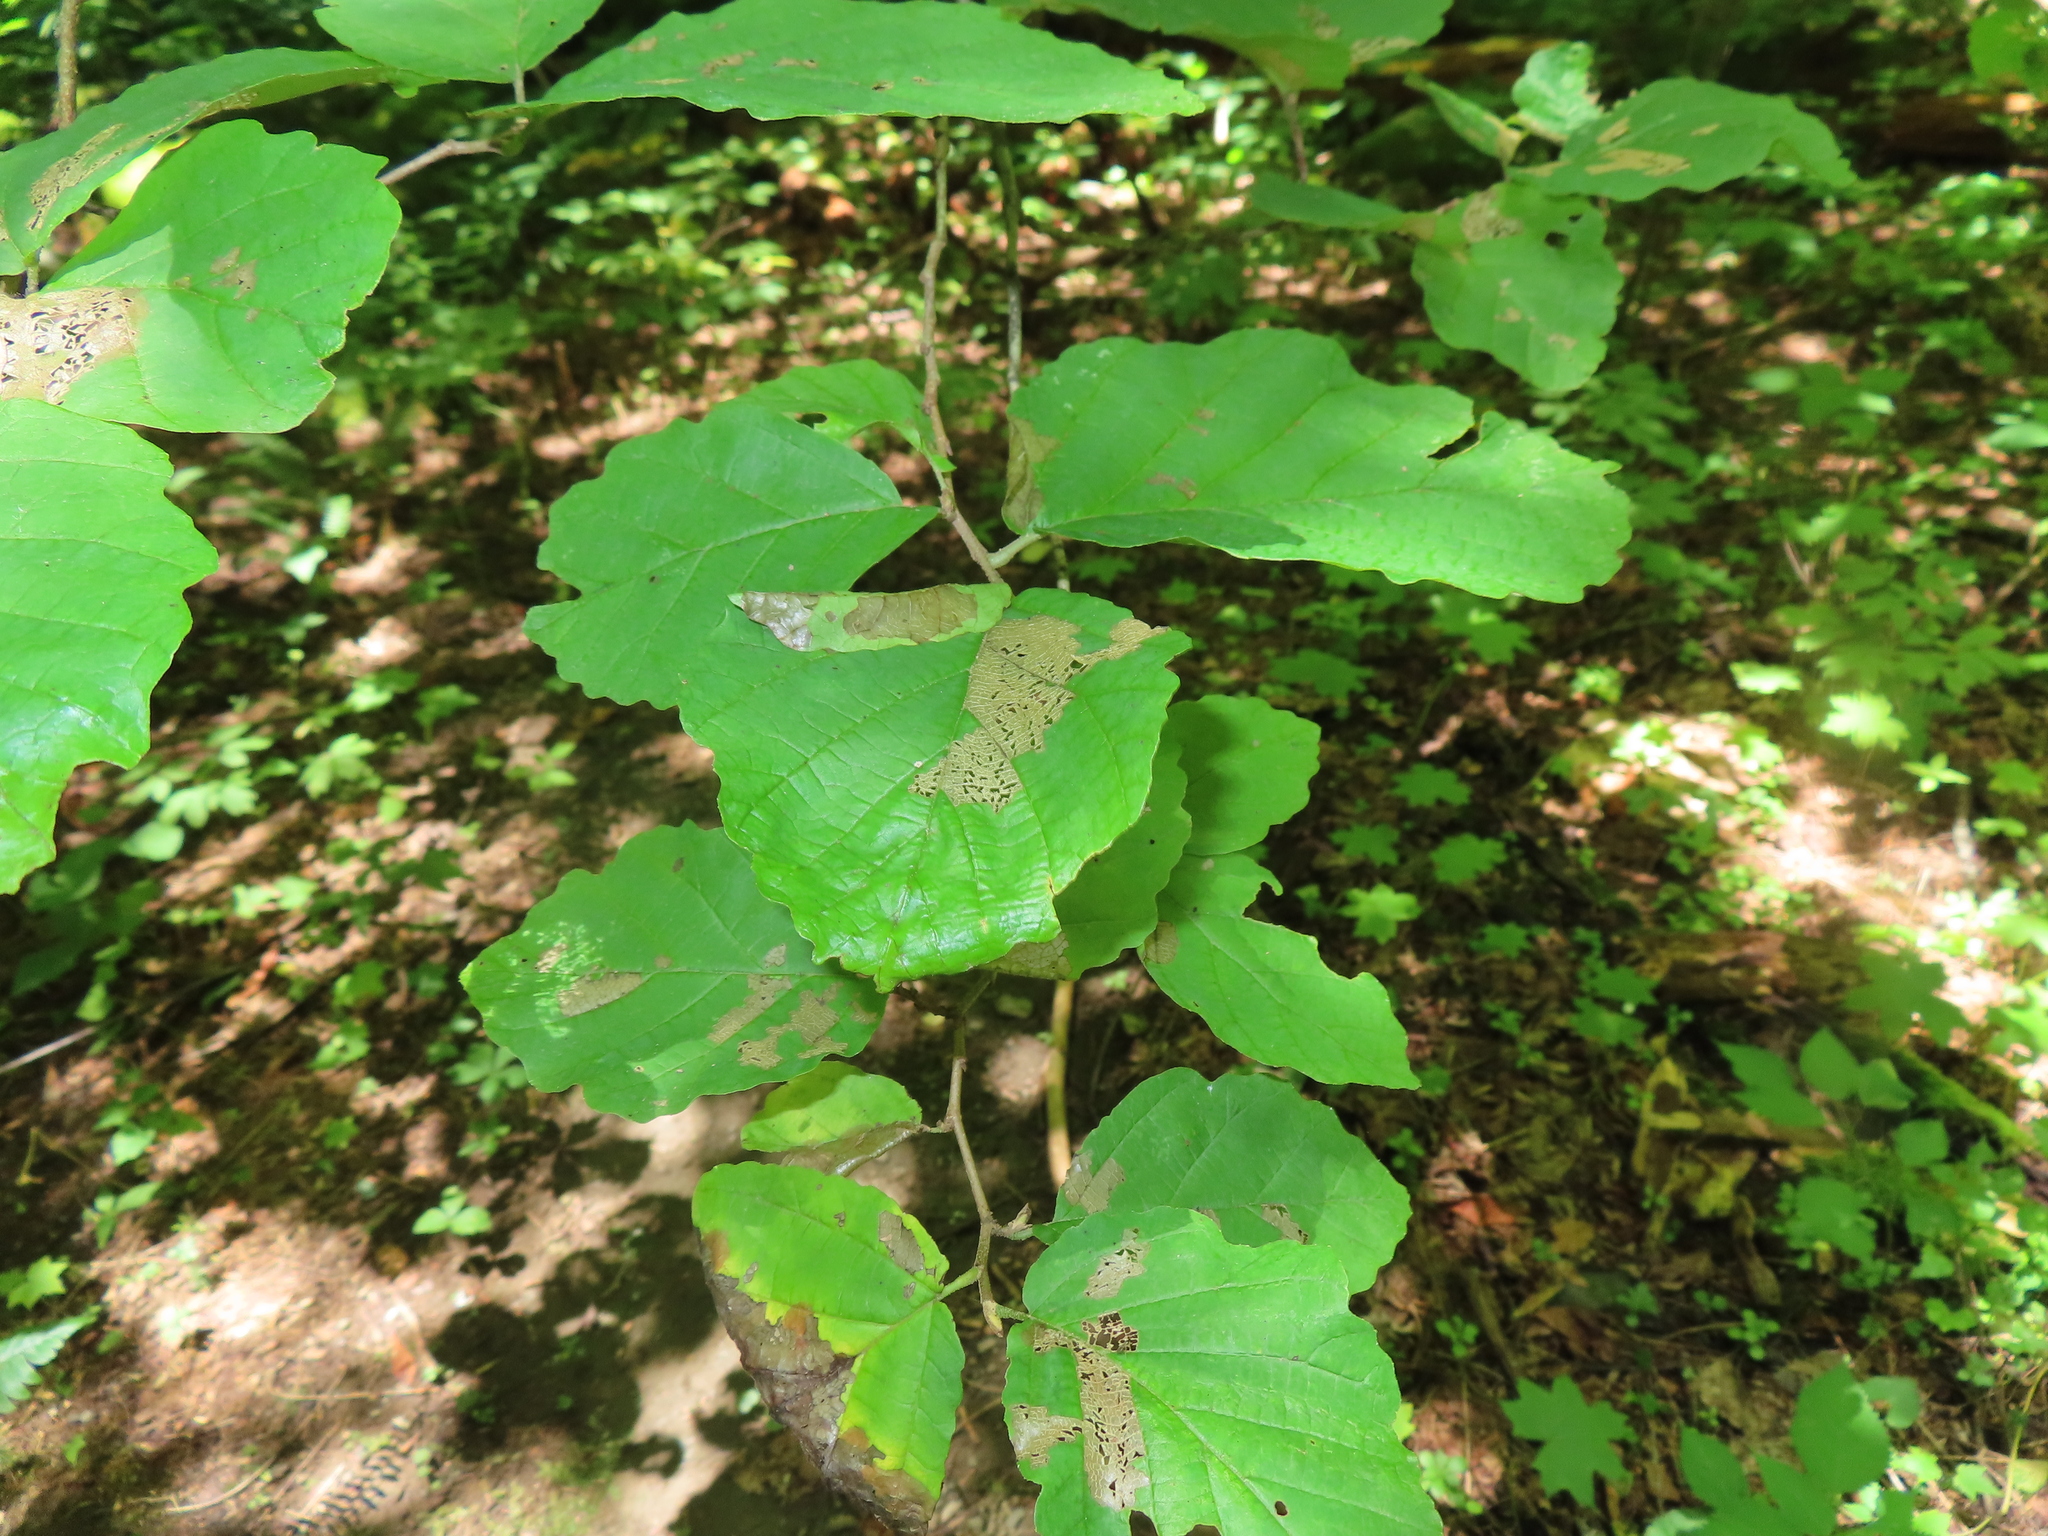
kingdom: Plantae
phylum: Tracheophyta
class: Magnoliopsida
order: Saxifragales
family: Hamamelidaceae
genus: Hamamelis
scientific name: Hamamelis virginiana
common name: Witch-hazel
